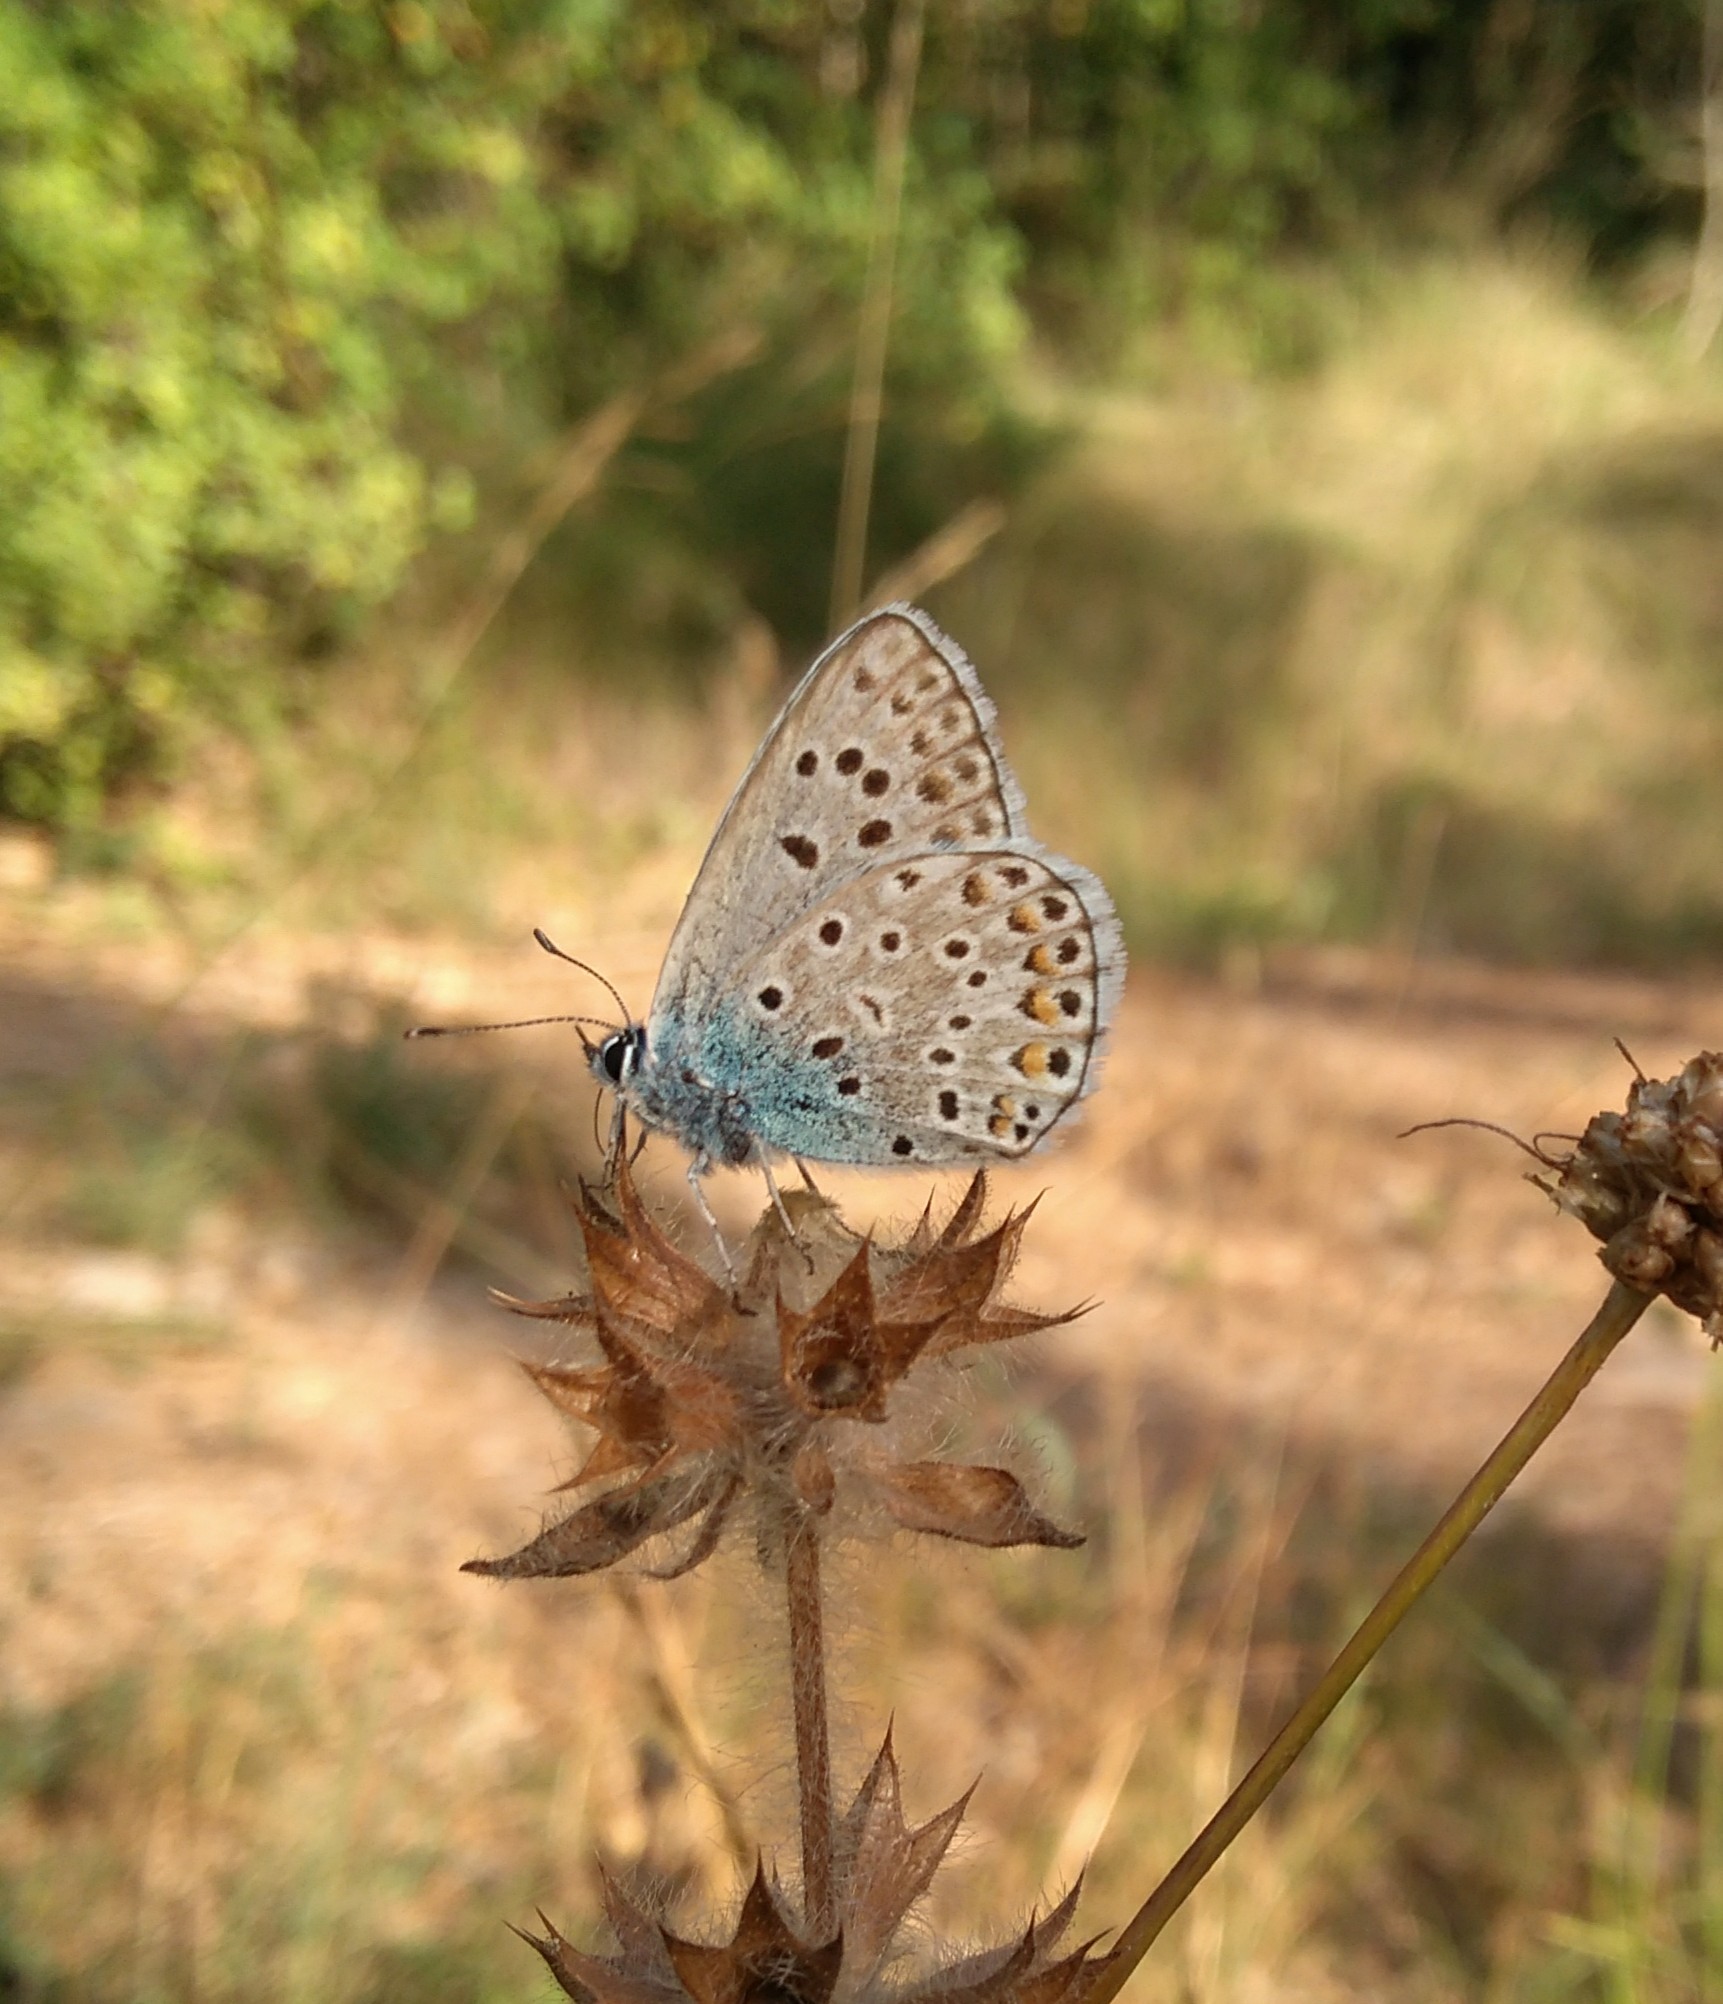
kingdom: Animalia
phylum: Arthropoda
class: Insecta
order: Lepidoptera
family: Lycaenidae
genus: Plebicula
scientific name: Plebicula escheri
